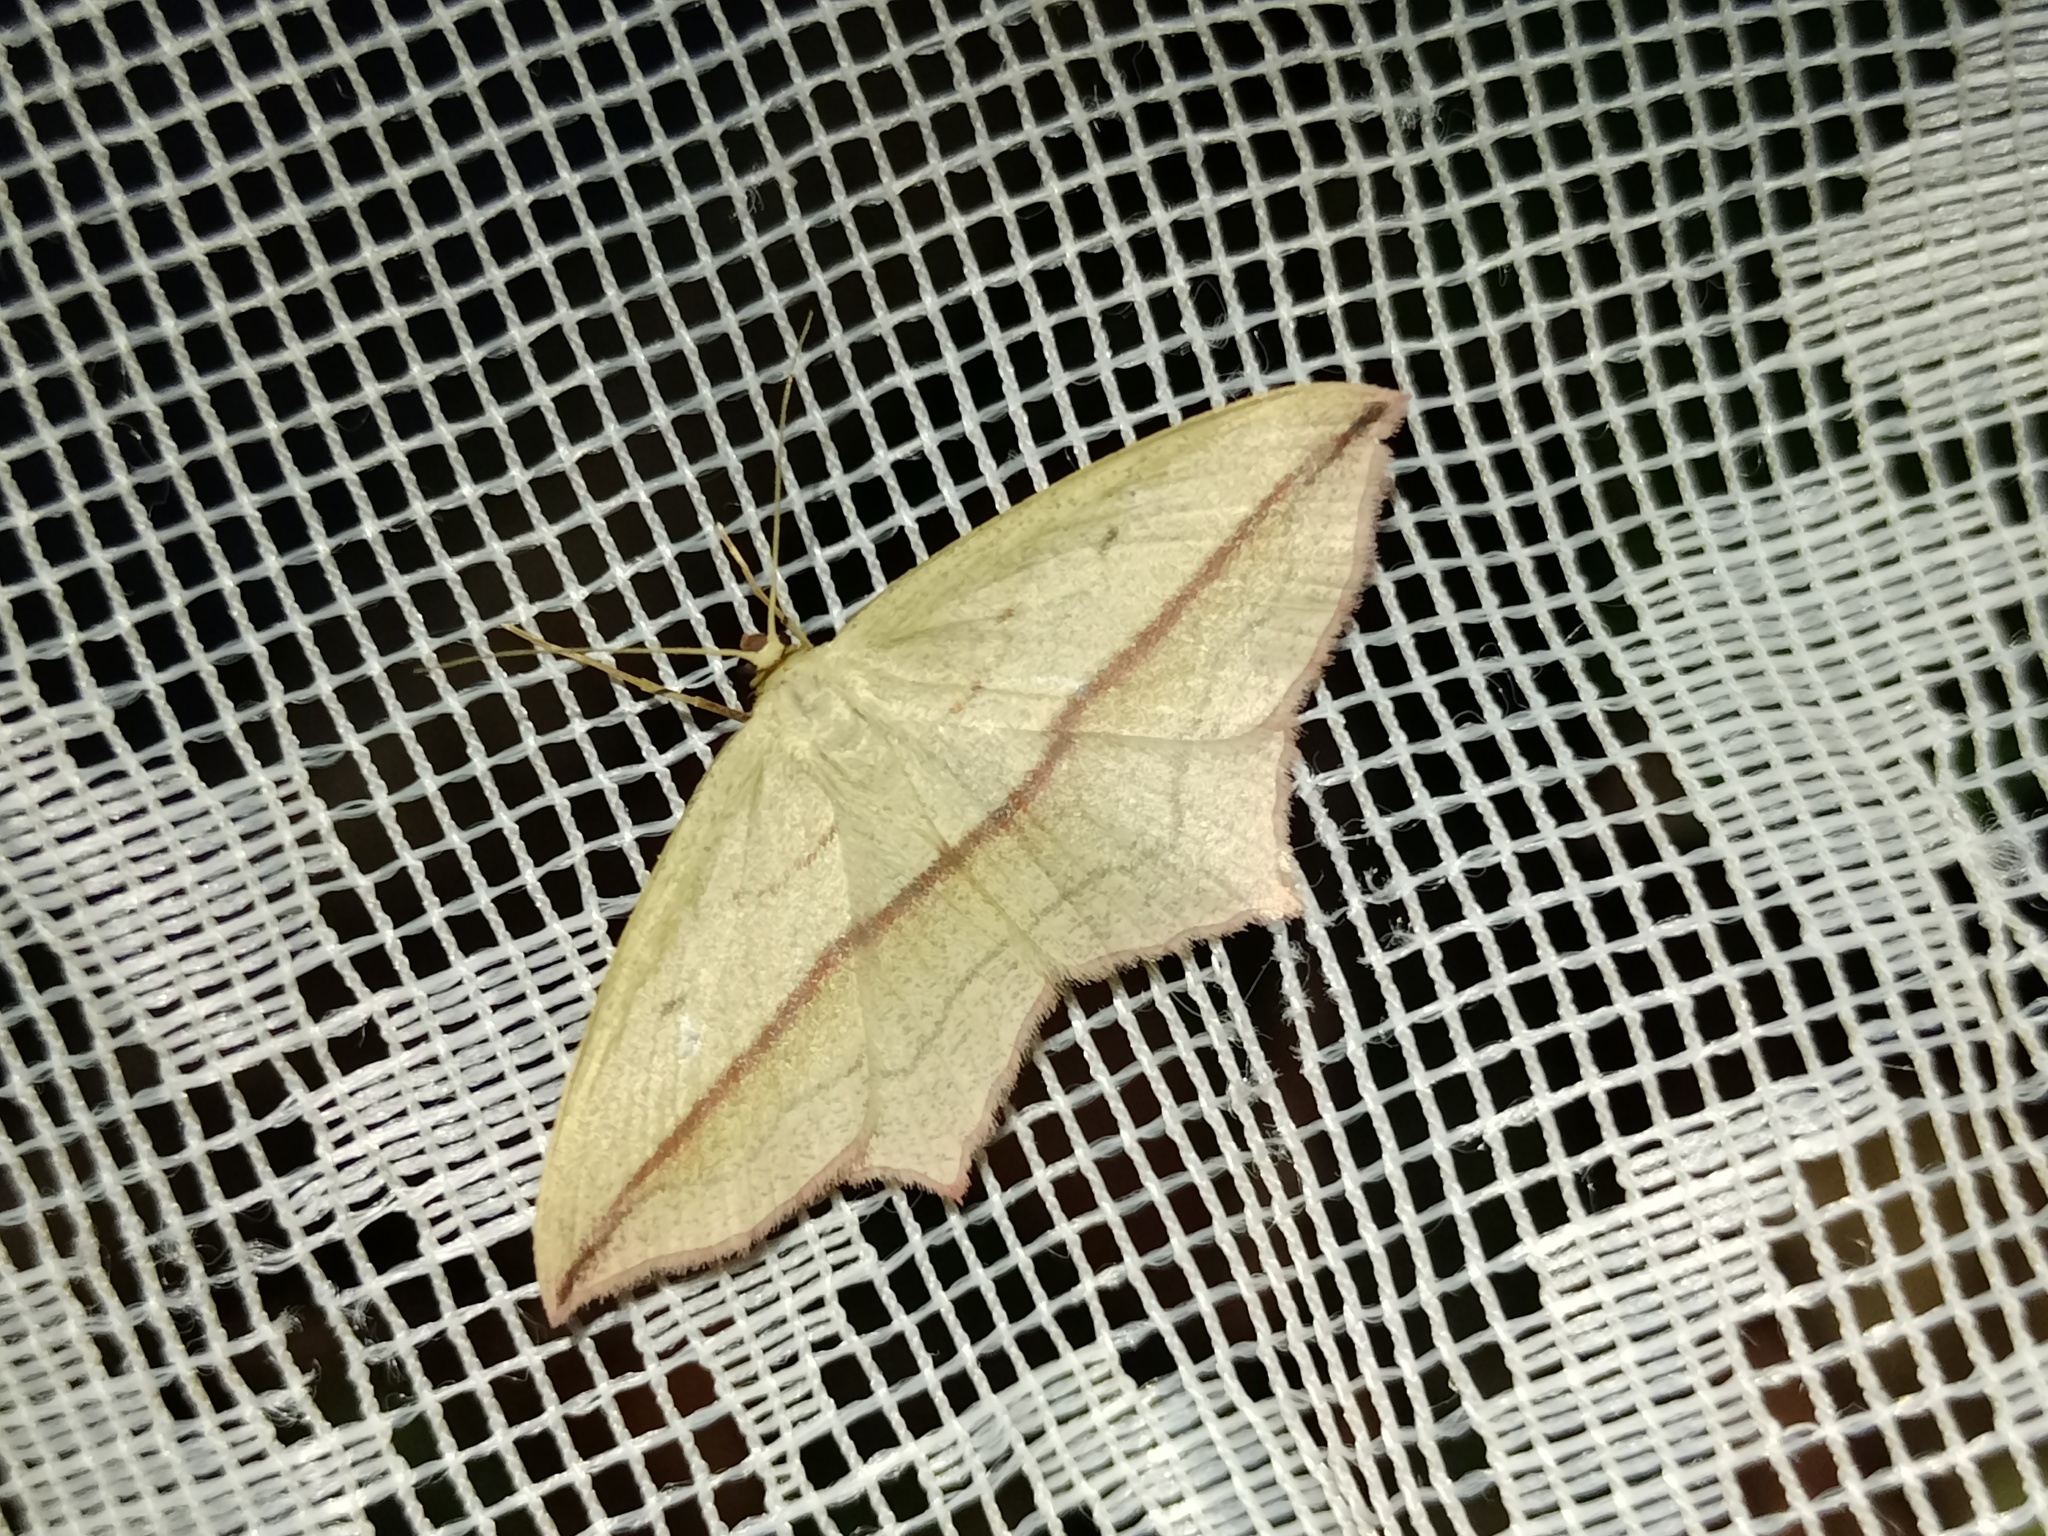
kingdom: Animalia
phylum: Arthropoda
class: Insecta
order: Lepidoptera
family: Geometridae
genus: Timandra
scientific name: Timandra comae
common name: Blood-vein
